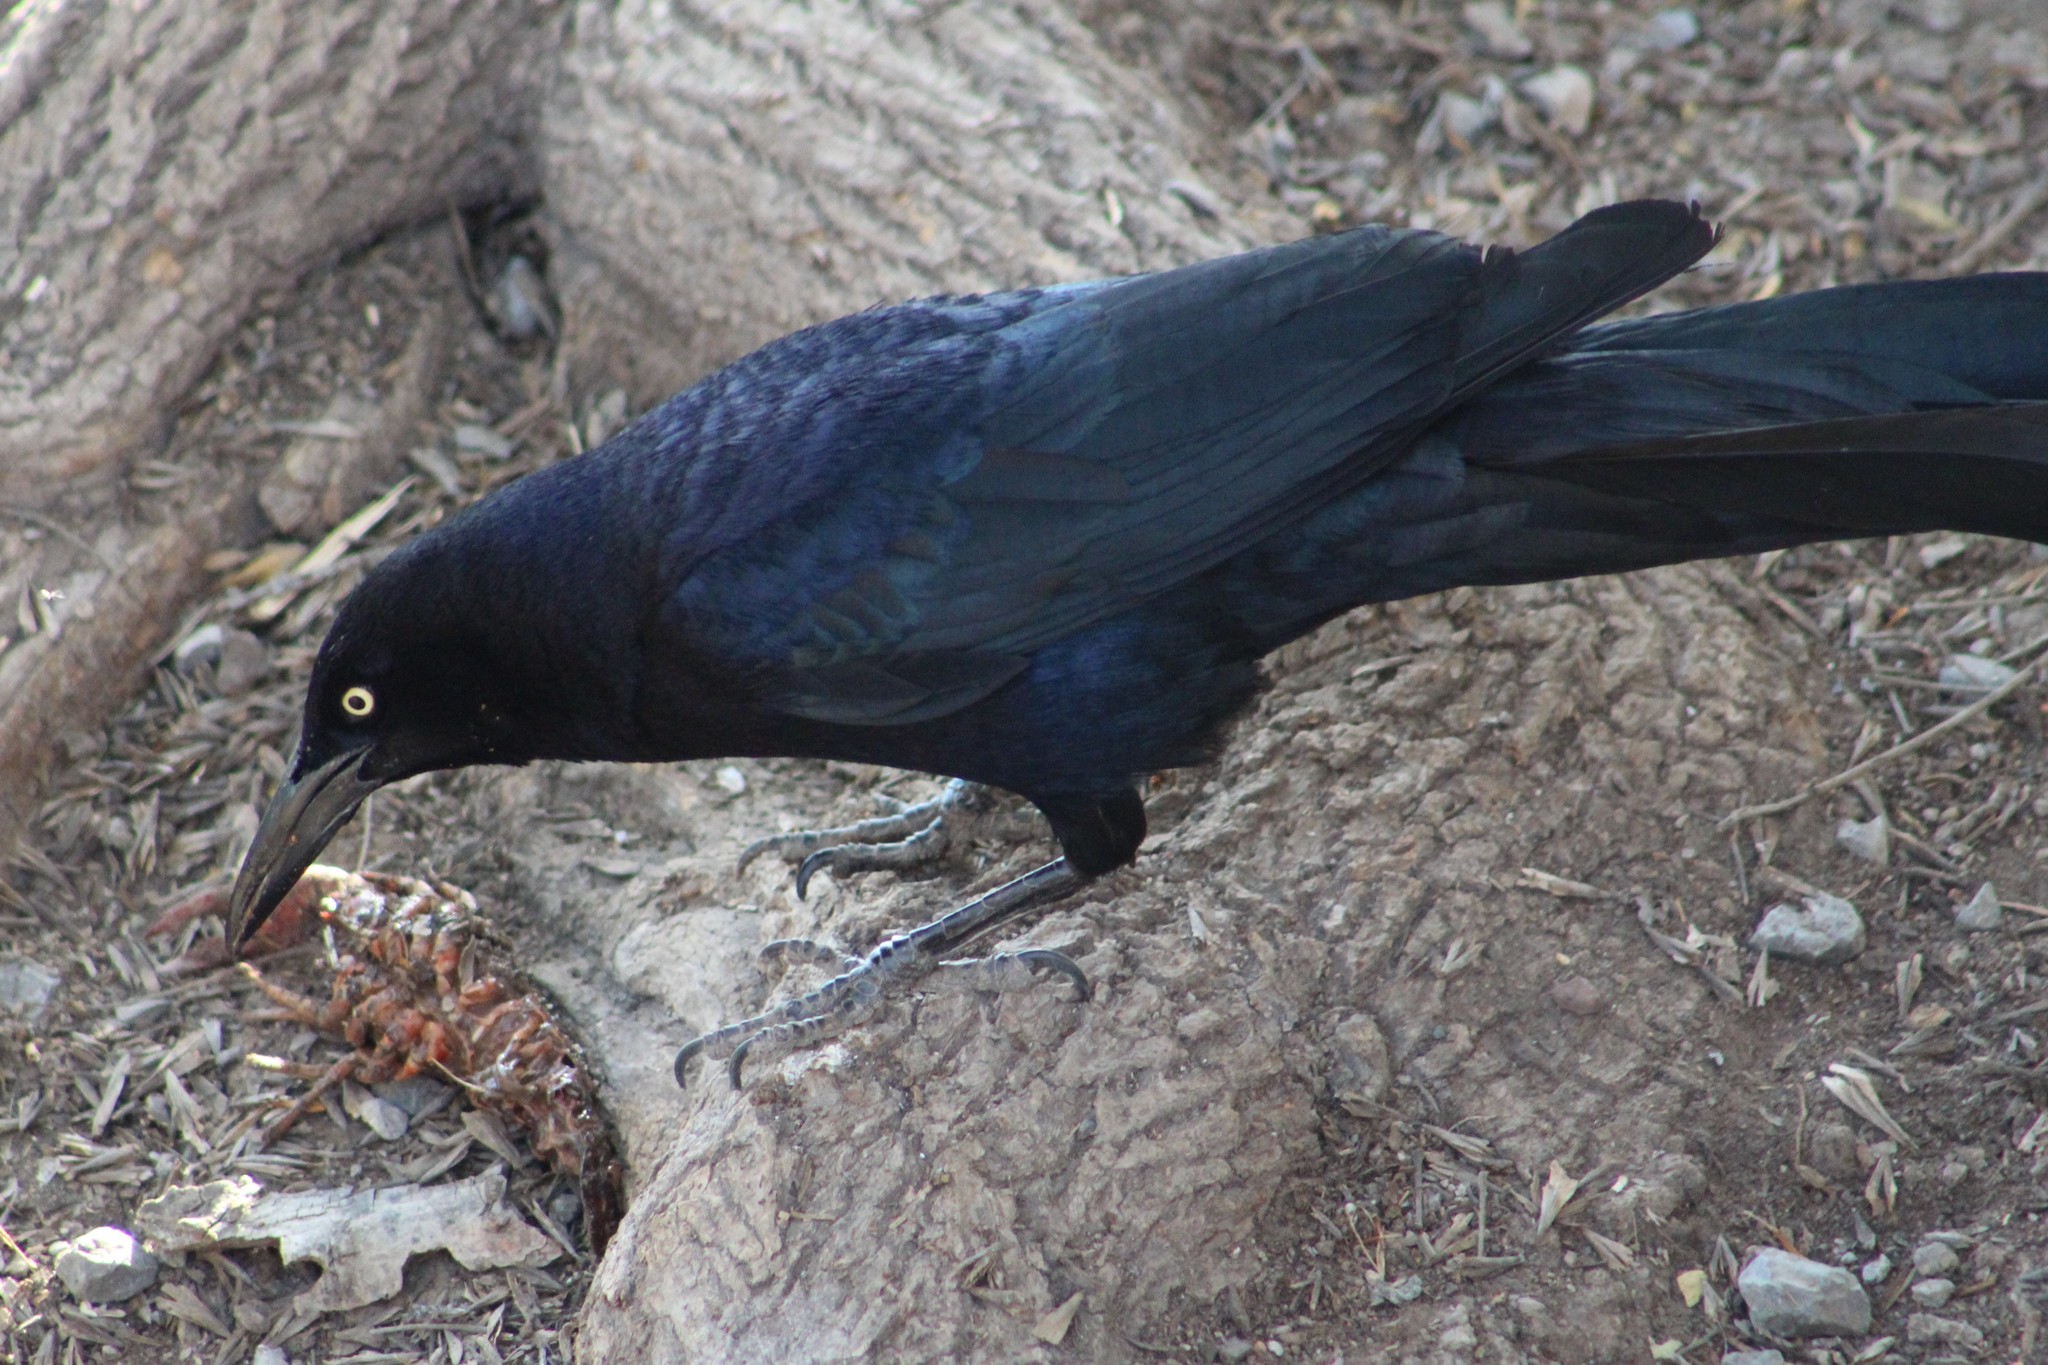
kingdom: Animalia
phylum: Chordata
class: Aves
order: Passeriformes
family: Icteridae
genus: Quiscalus
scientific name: Quiscalus mexicanus
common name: Great-tailed grackle
